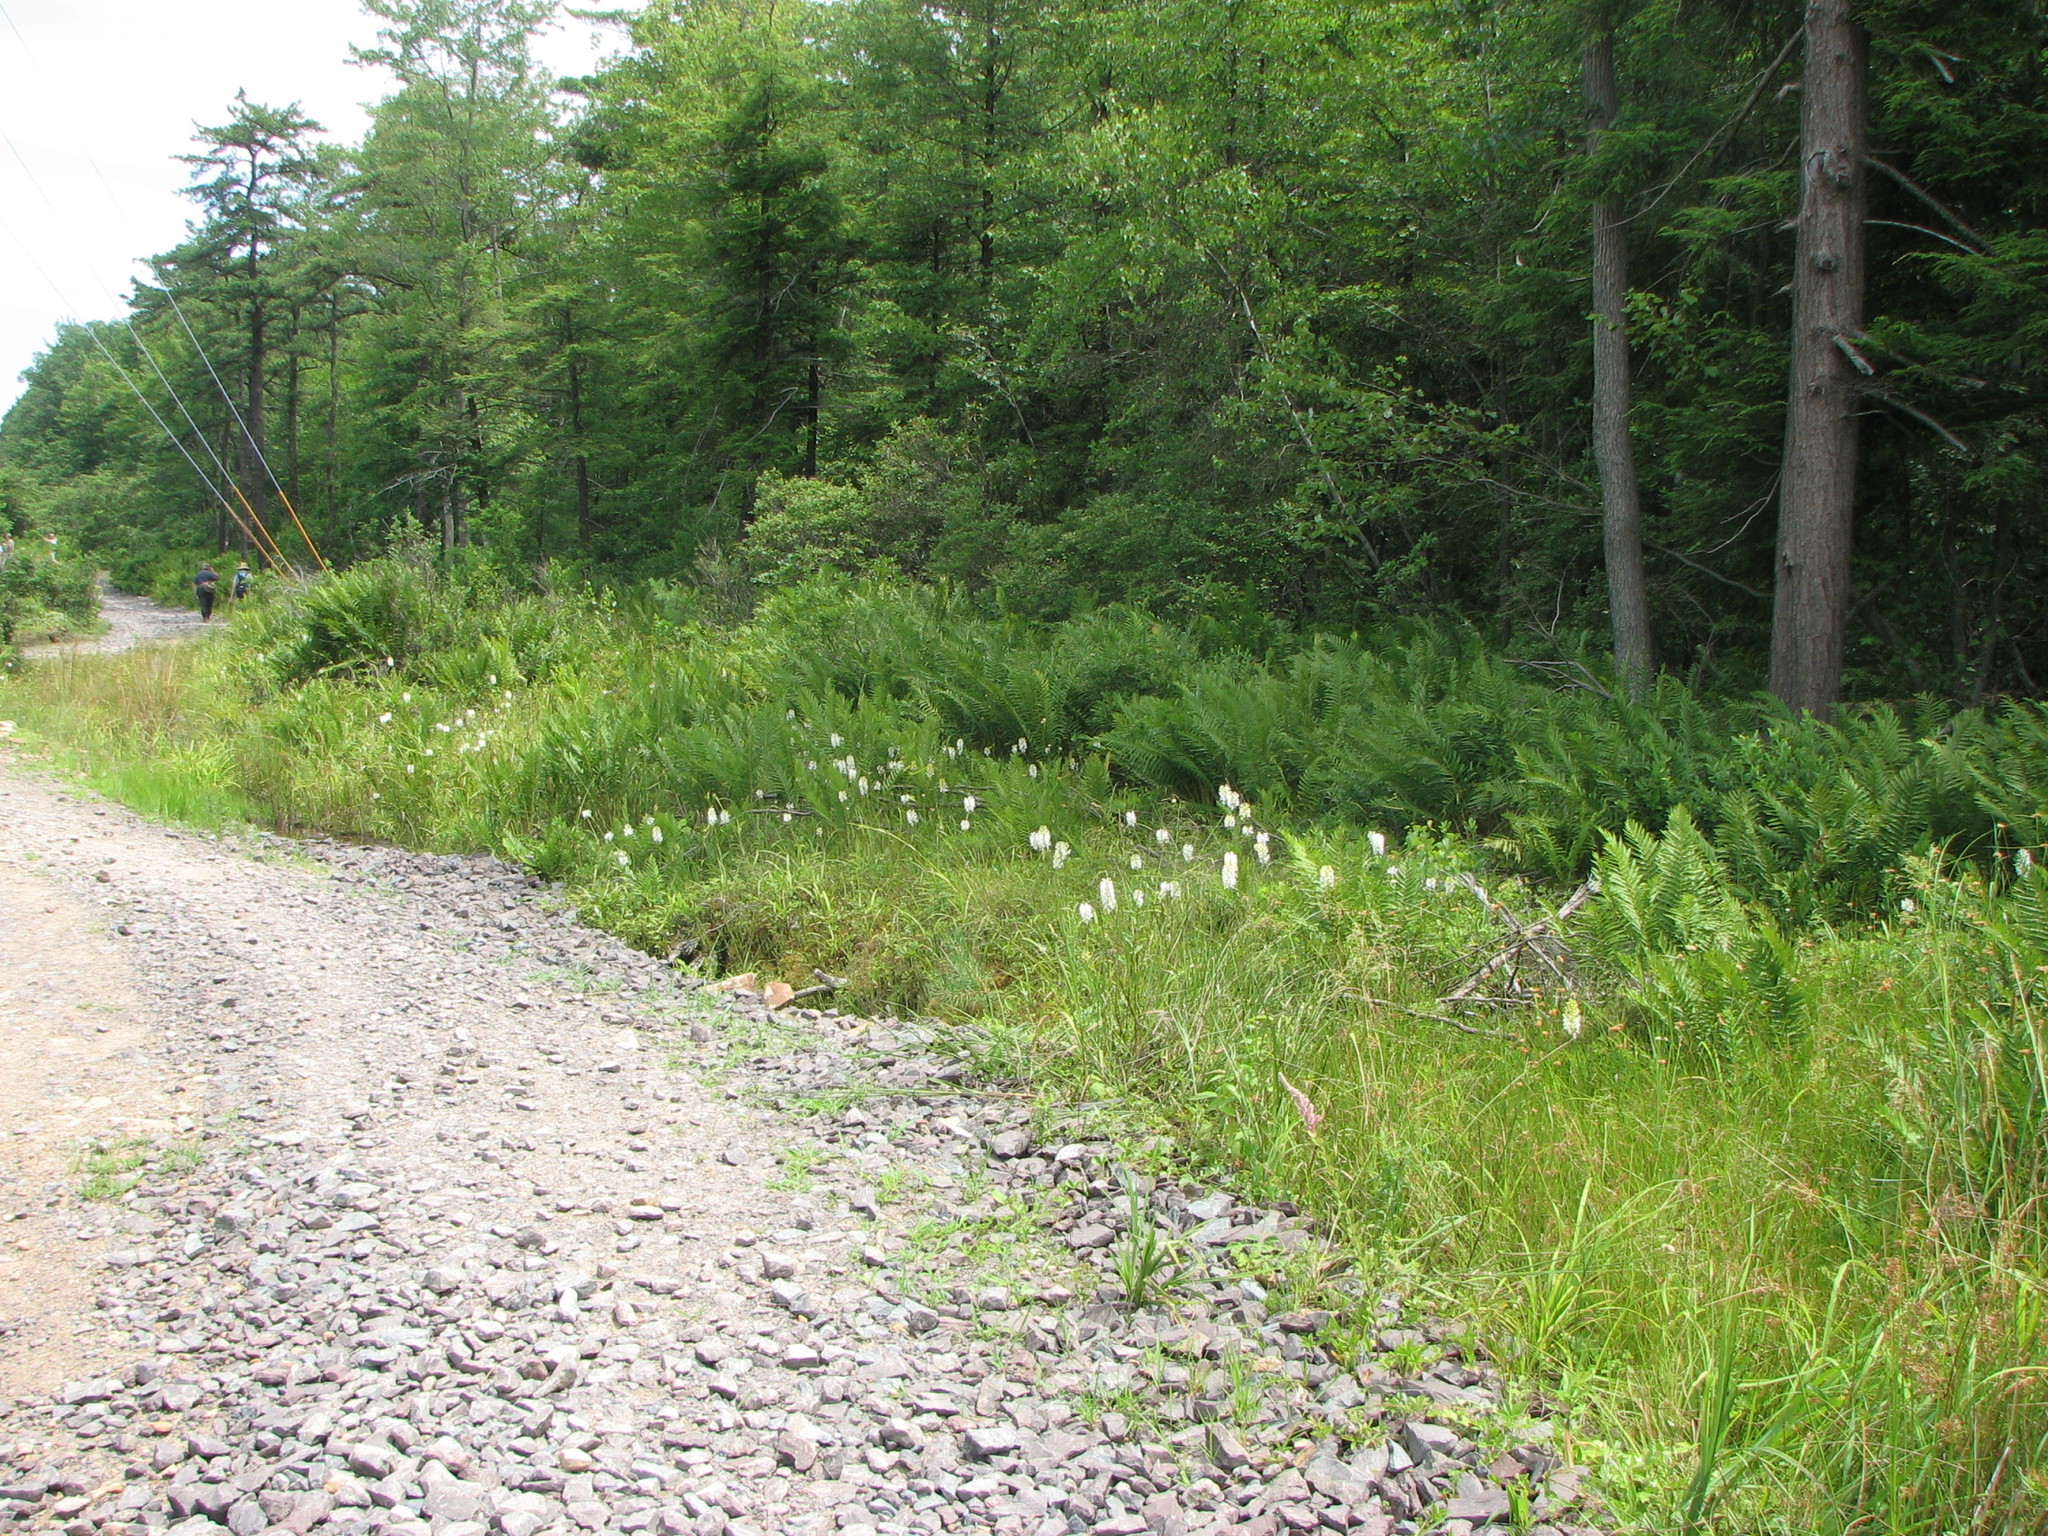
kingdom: Plantae
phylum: Tracheophyta
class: Liliopsida
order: Asparagales
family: Orchidaceae
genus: Platanthera
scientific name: Platanthera blephariglottis
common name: White fringed orchid
